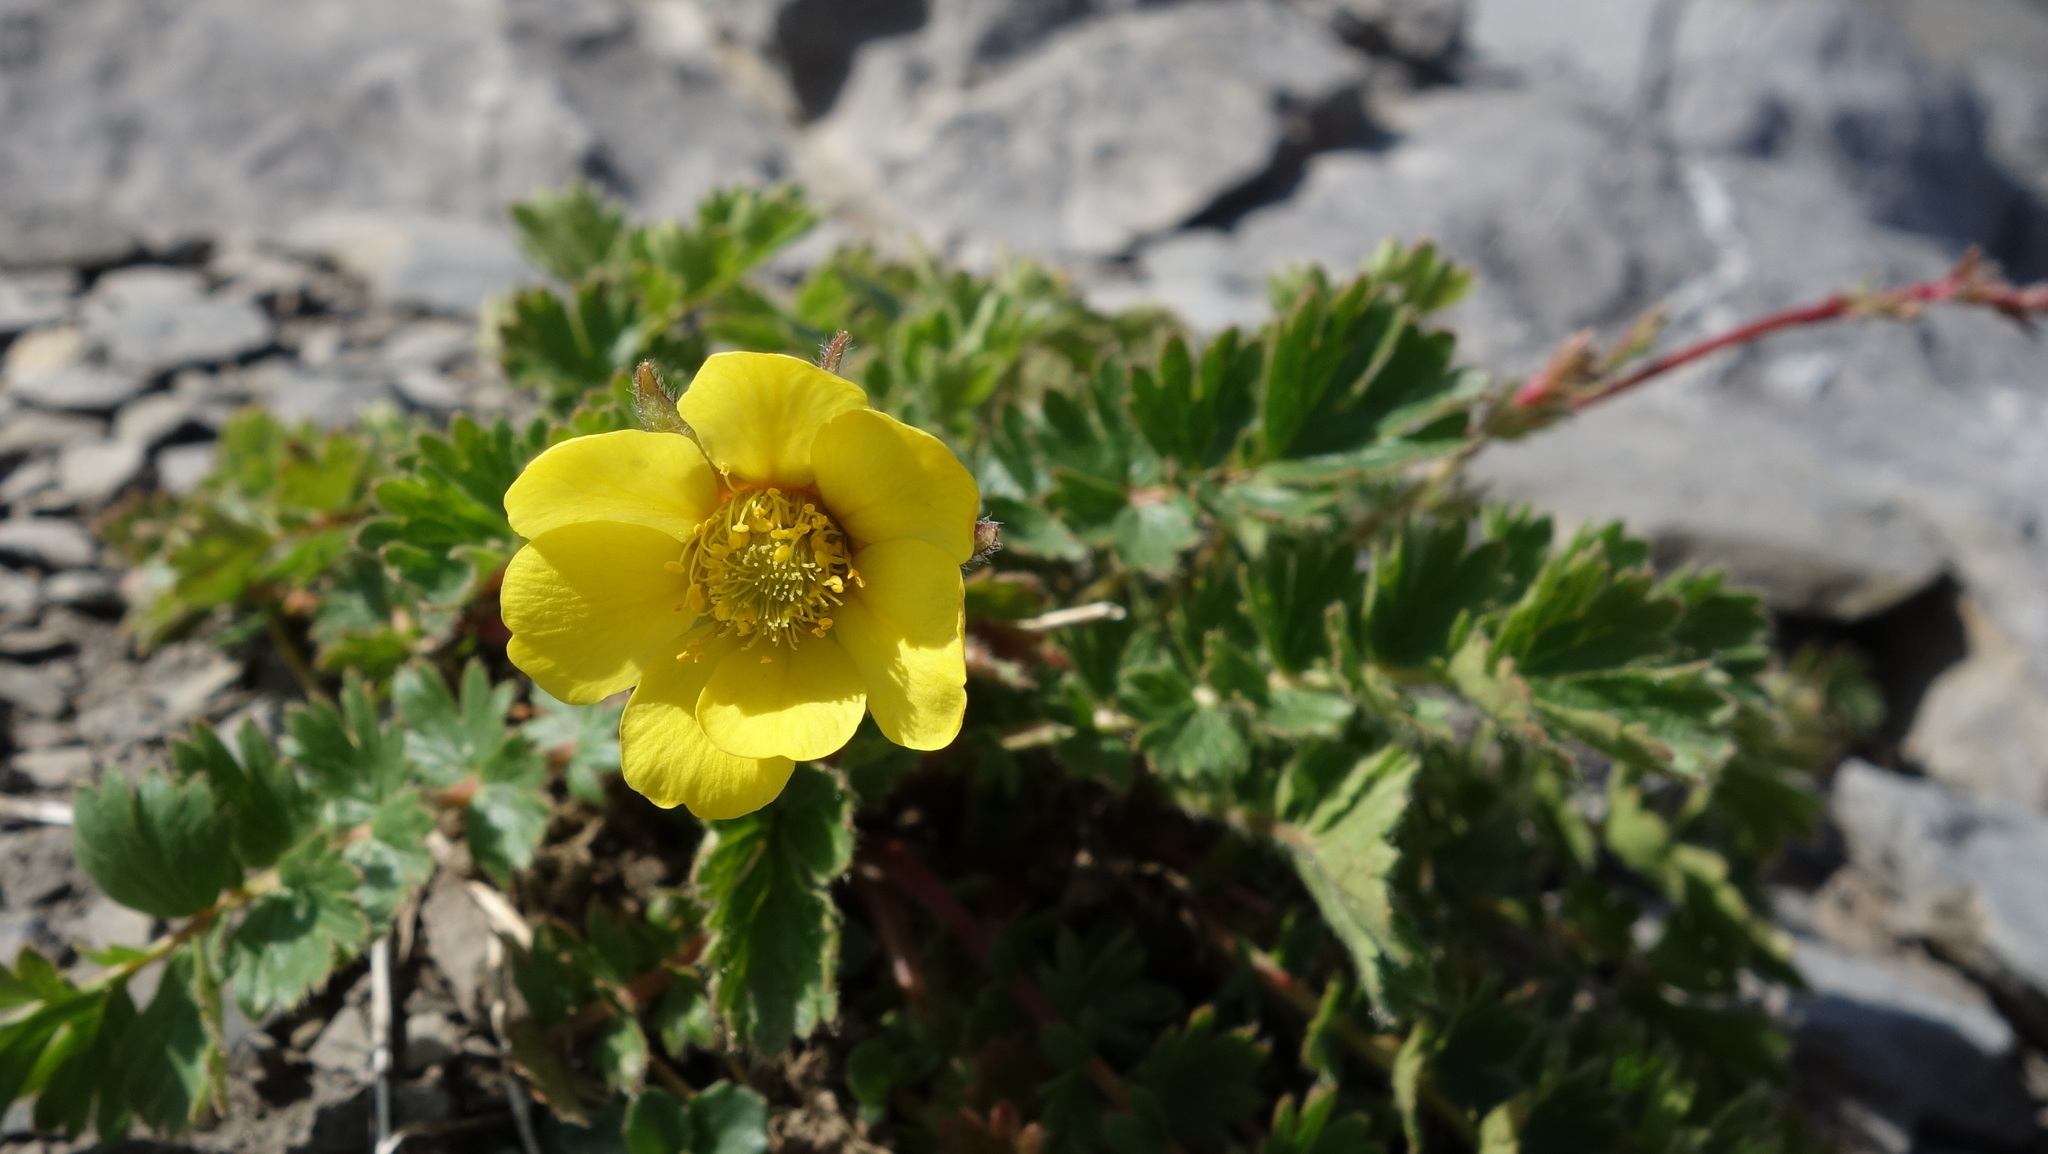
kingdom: Plantae
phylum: Tracheophyta
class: Magnoliopsida
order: Rosales
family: Rosaceae
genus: Geum
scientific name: Geum reptans
